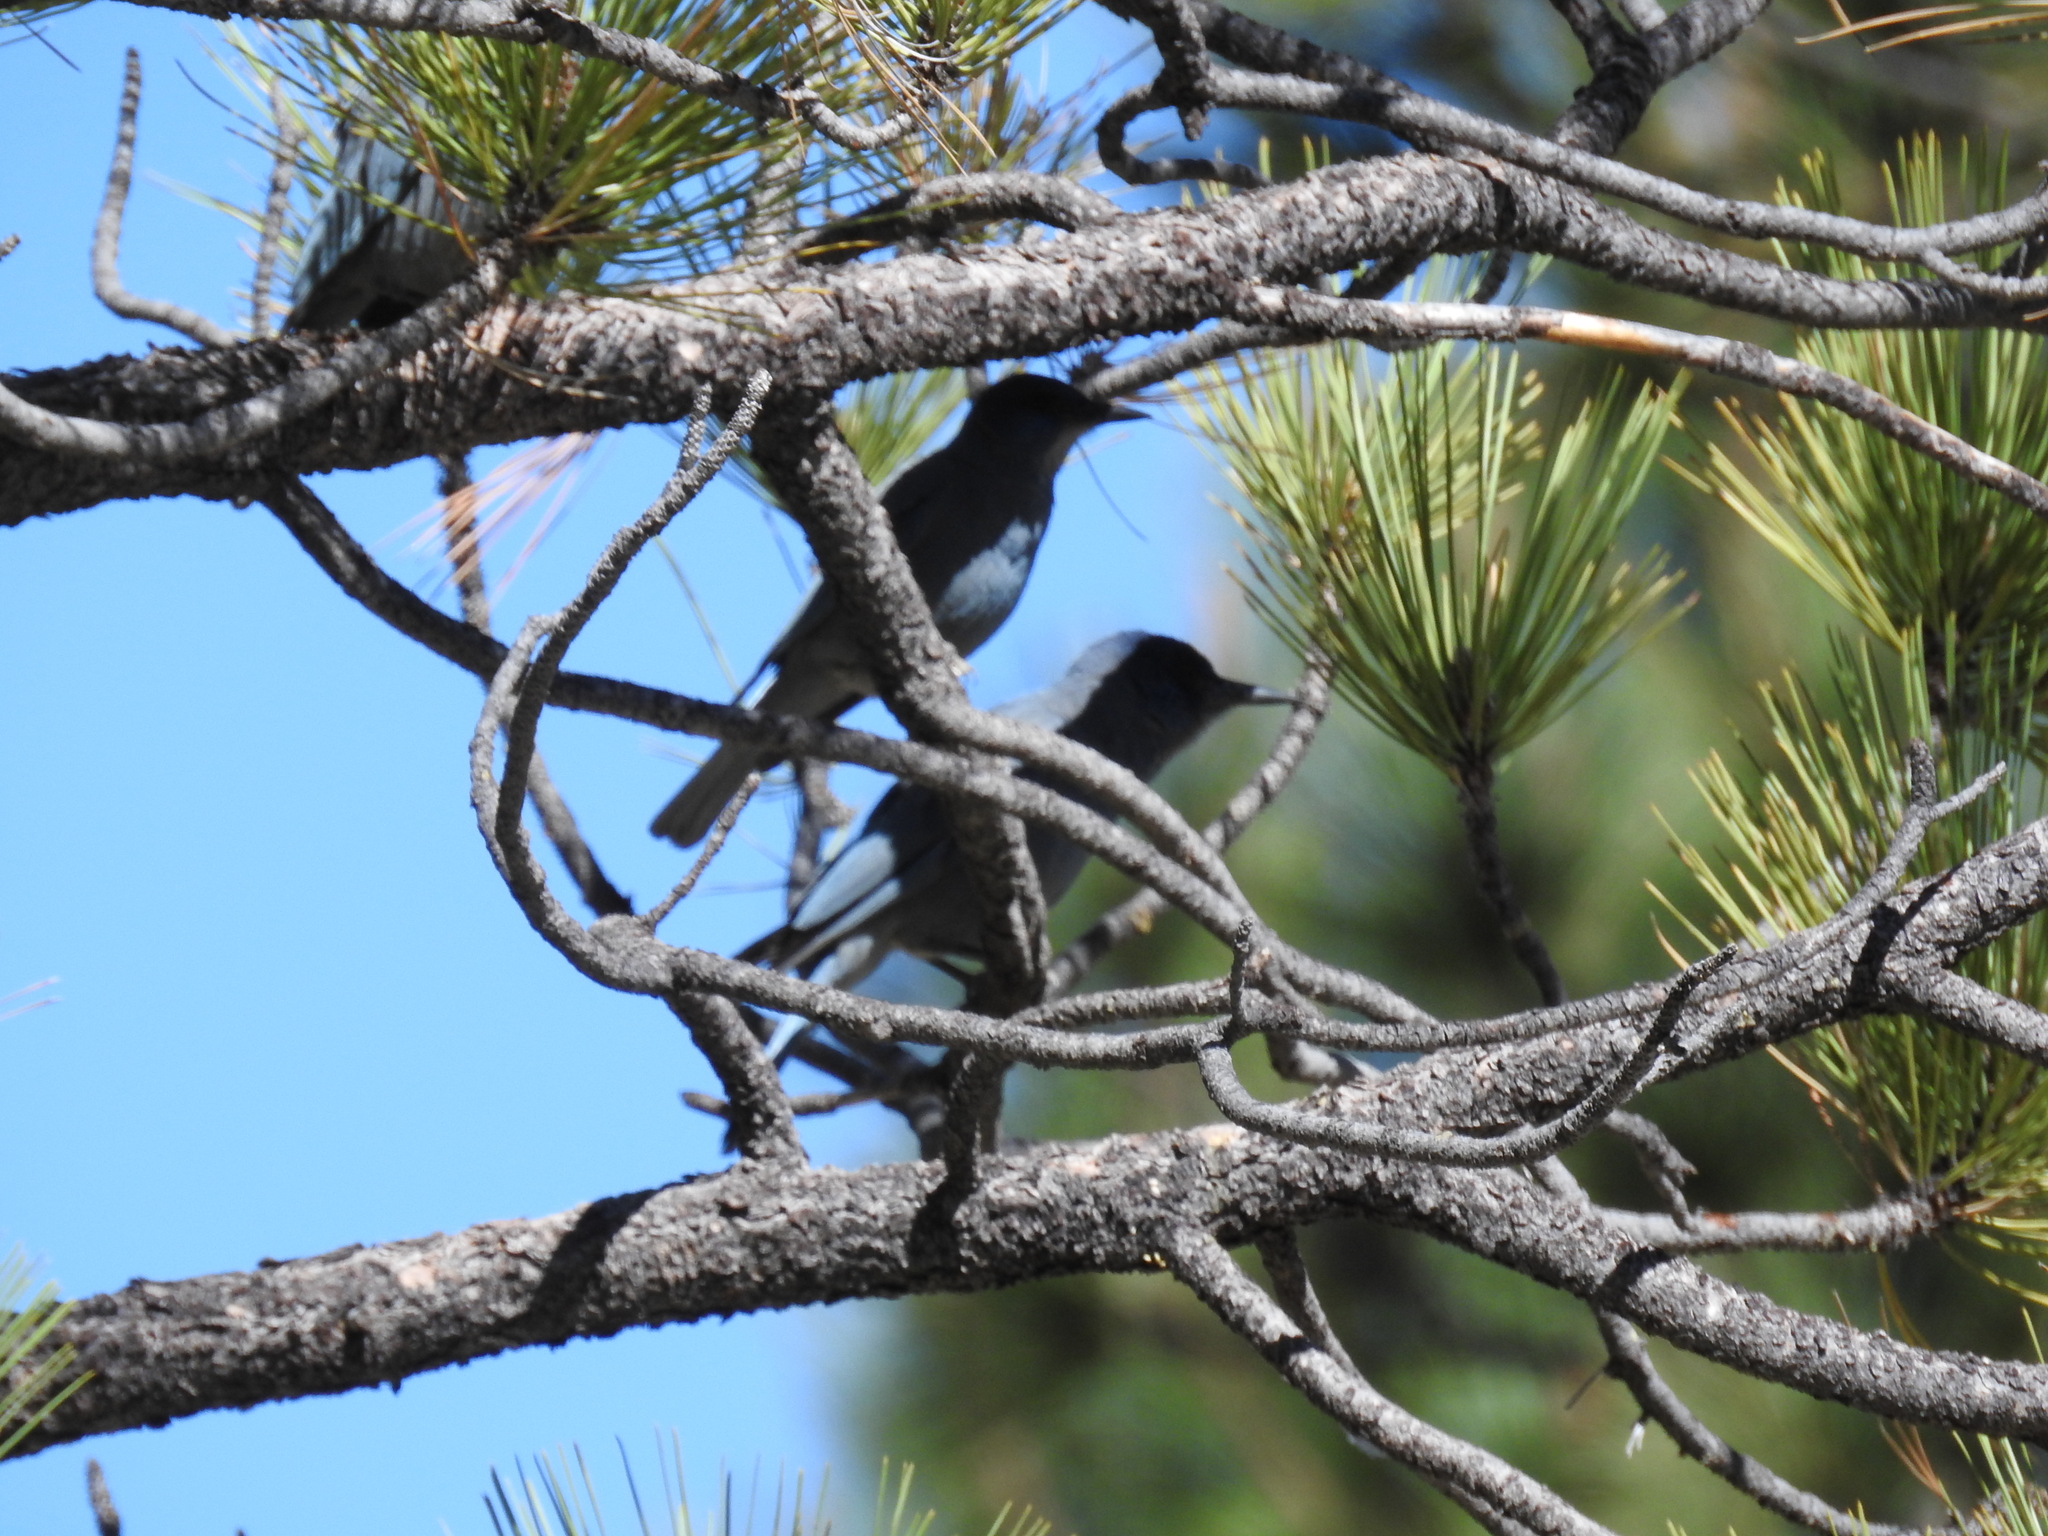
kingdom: Animalia
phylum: Chordata
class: Aves
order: Passeriformes
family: Corvidae
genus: Gymnorhinus
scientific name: Gymnorhinus cyanocephalus
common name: Pinyon jay
